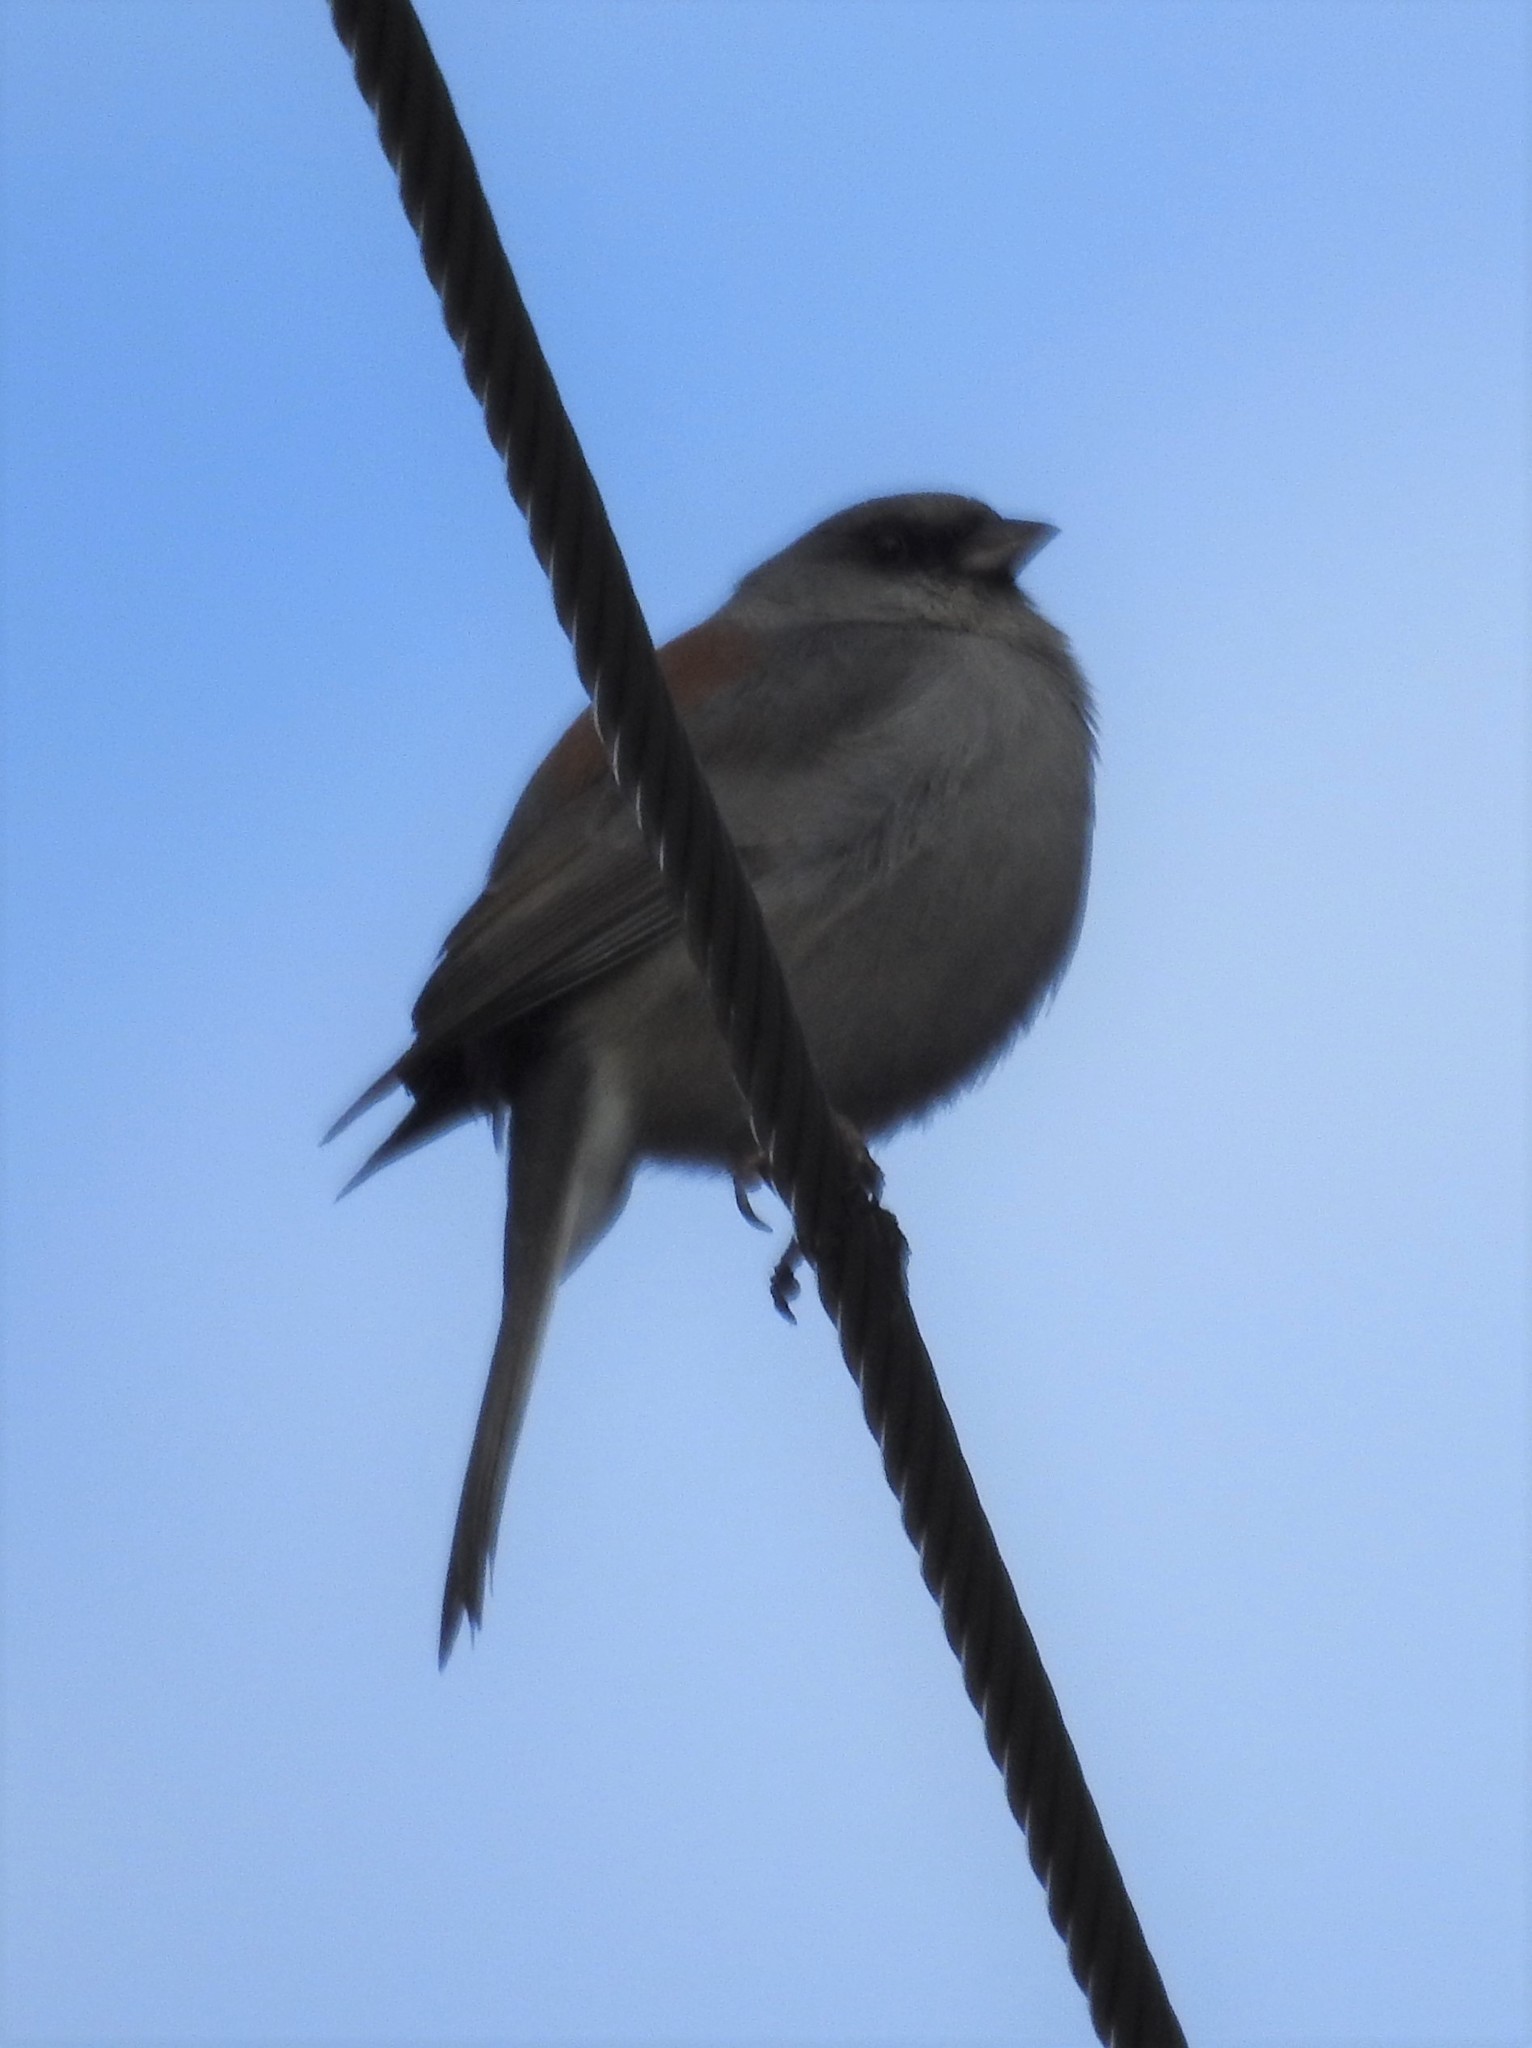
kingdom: Animalia
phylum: Chordata
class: Aves
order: Passeriformes
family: Passerellidae
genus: Junco
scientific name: Junco hyemalis
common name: Dark-eyed junco
